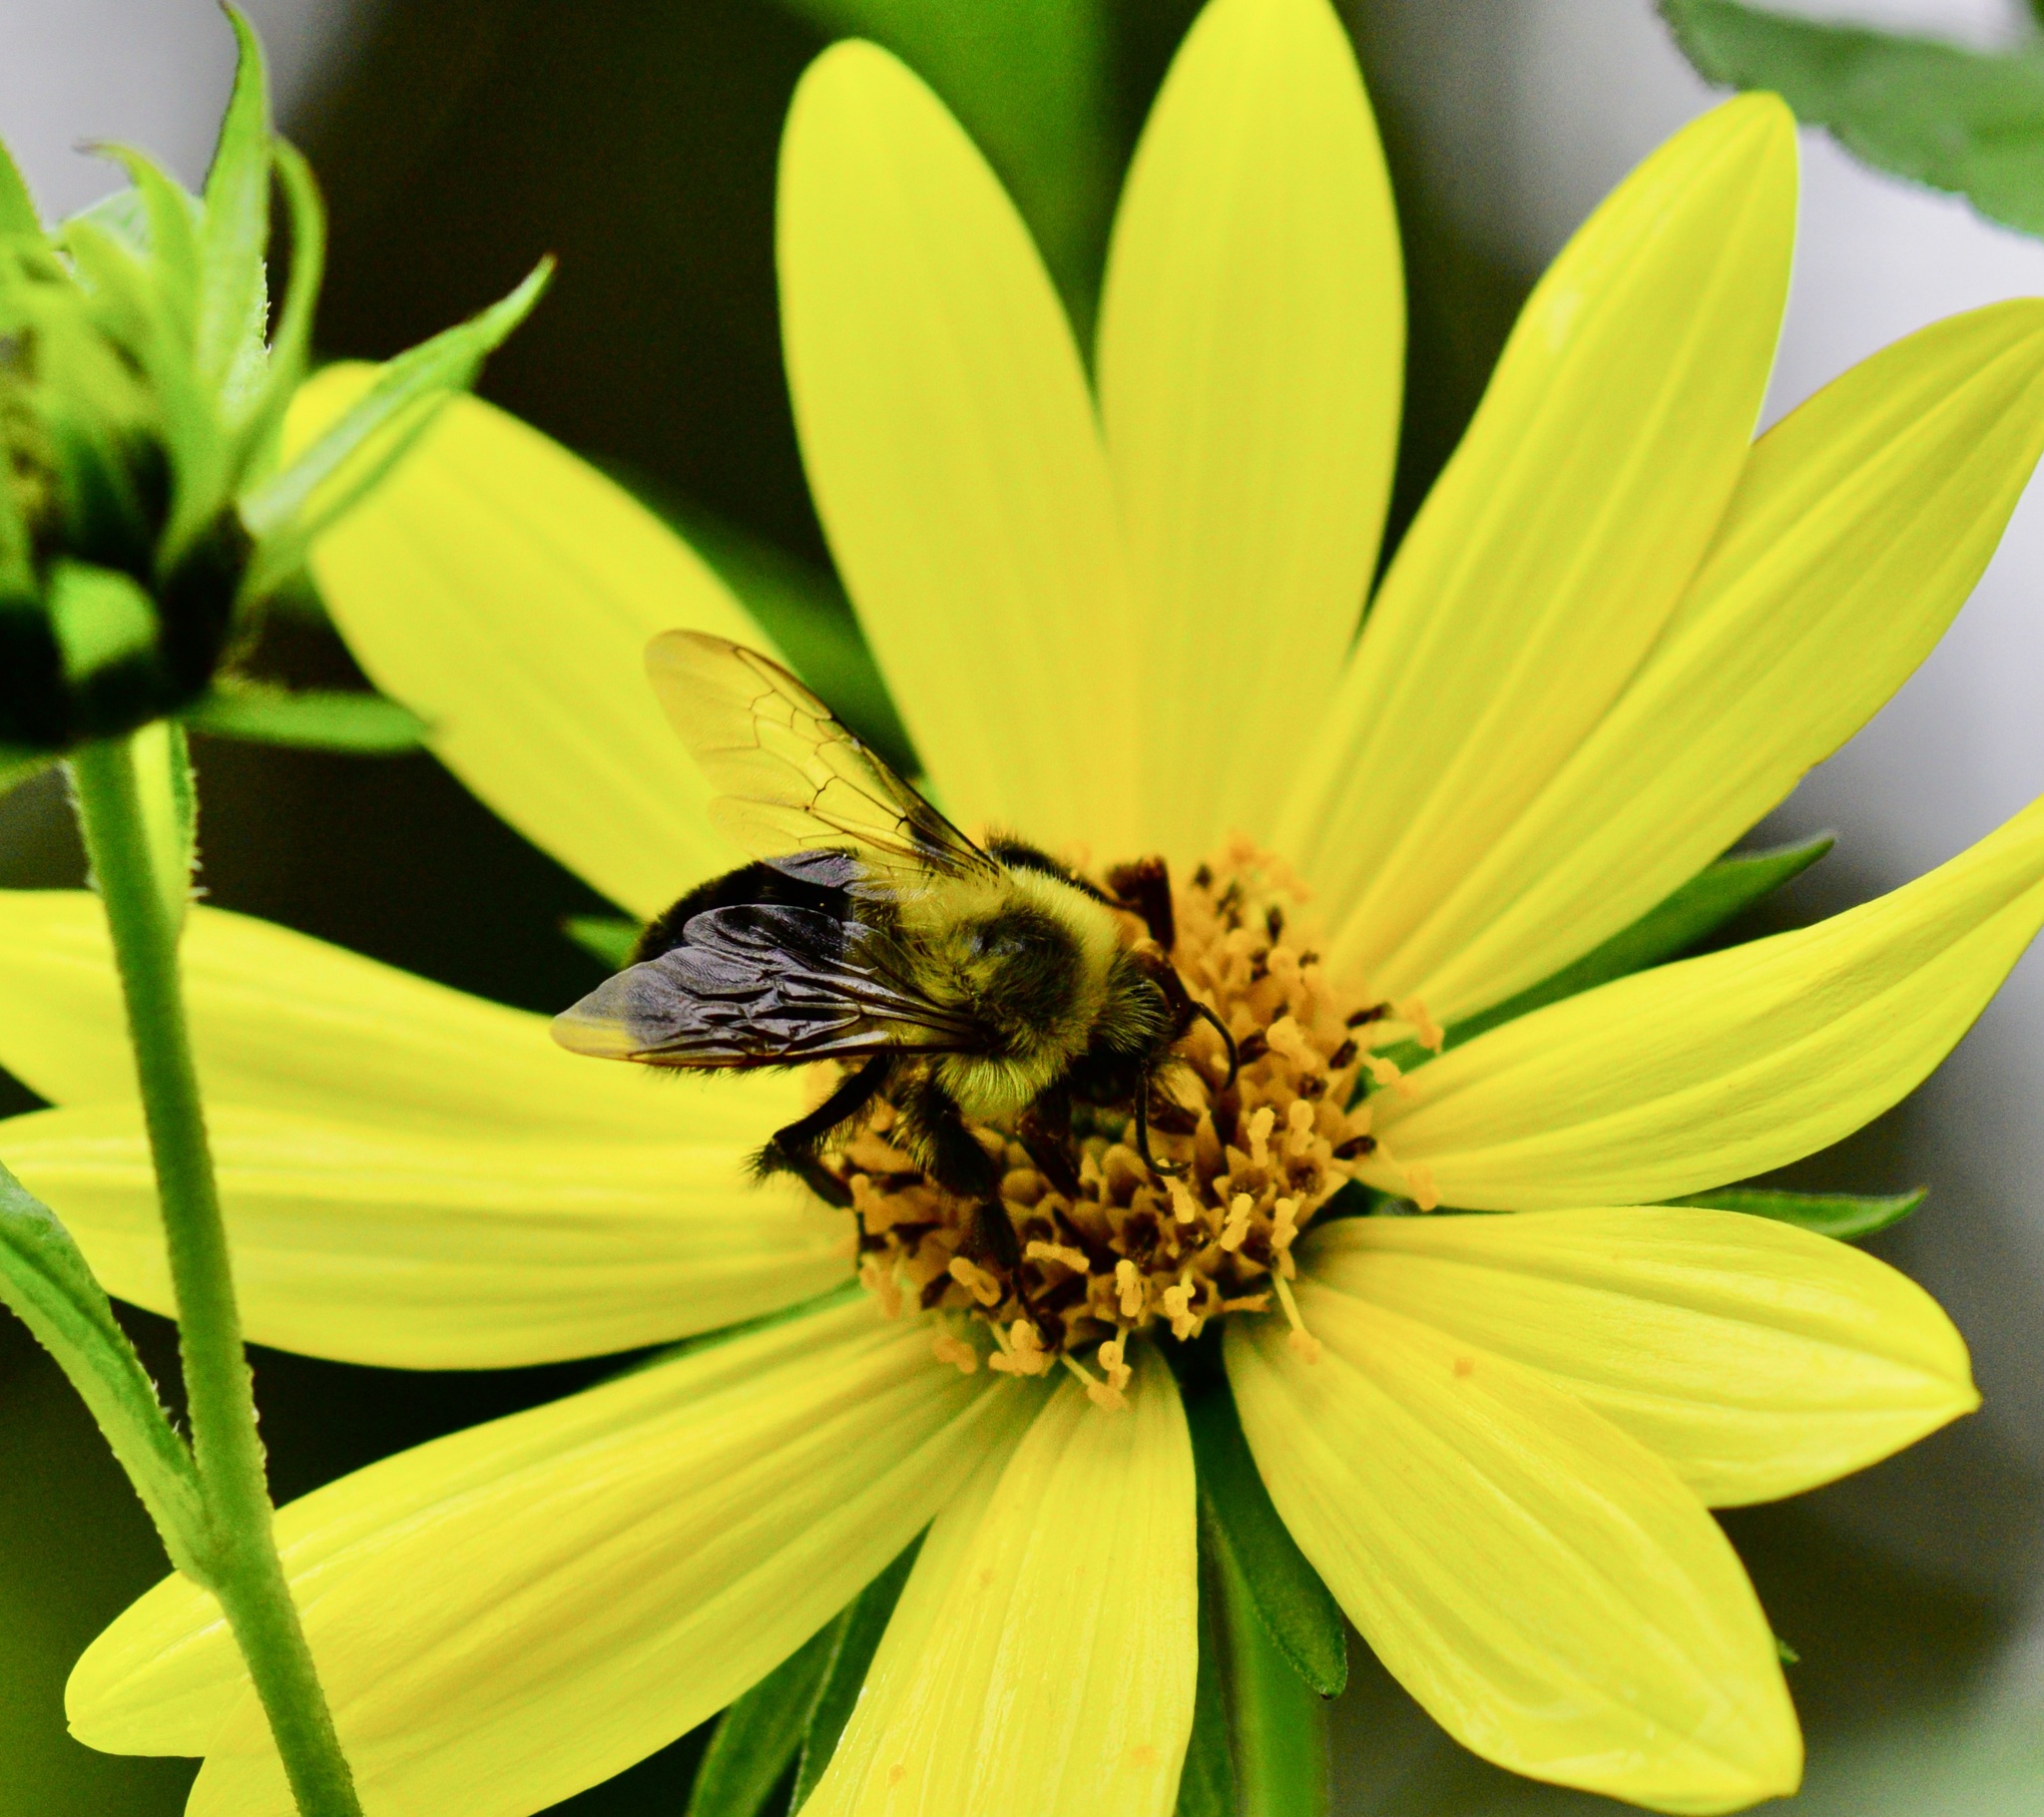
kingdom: Animalia
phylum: Arthropoda
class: Insecta
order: Hymenoptera
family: Apidae
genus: Bombus
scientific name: Bombus impatiens
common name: Common eastern bumble bee
